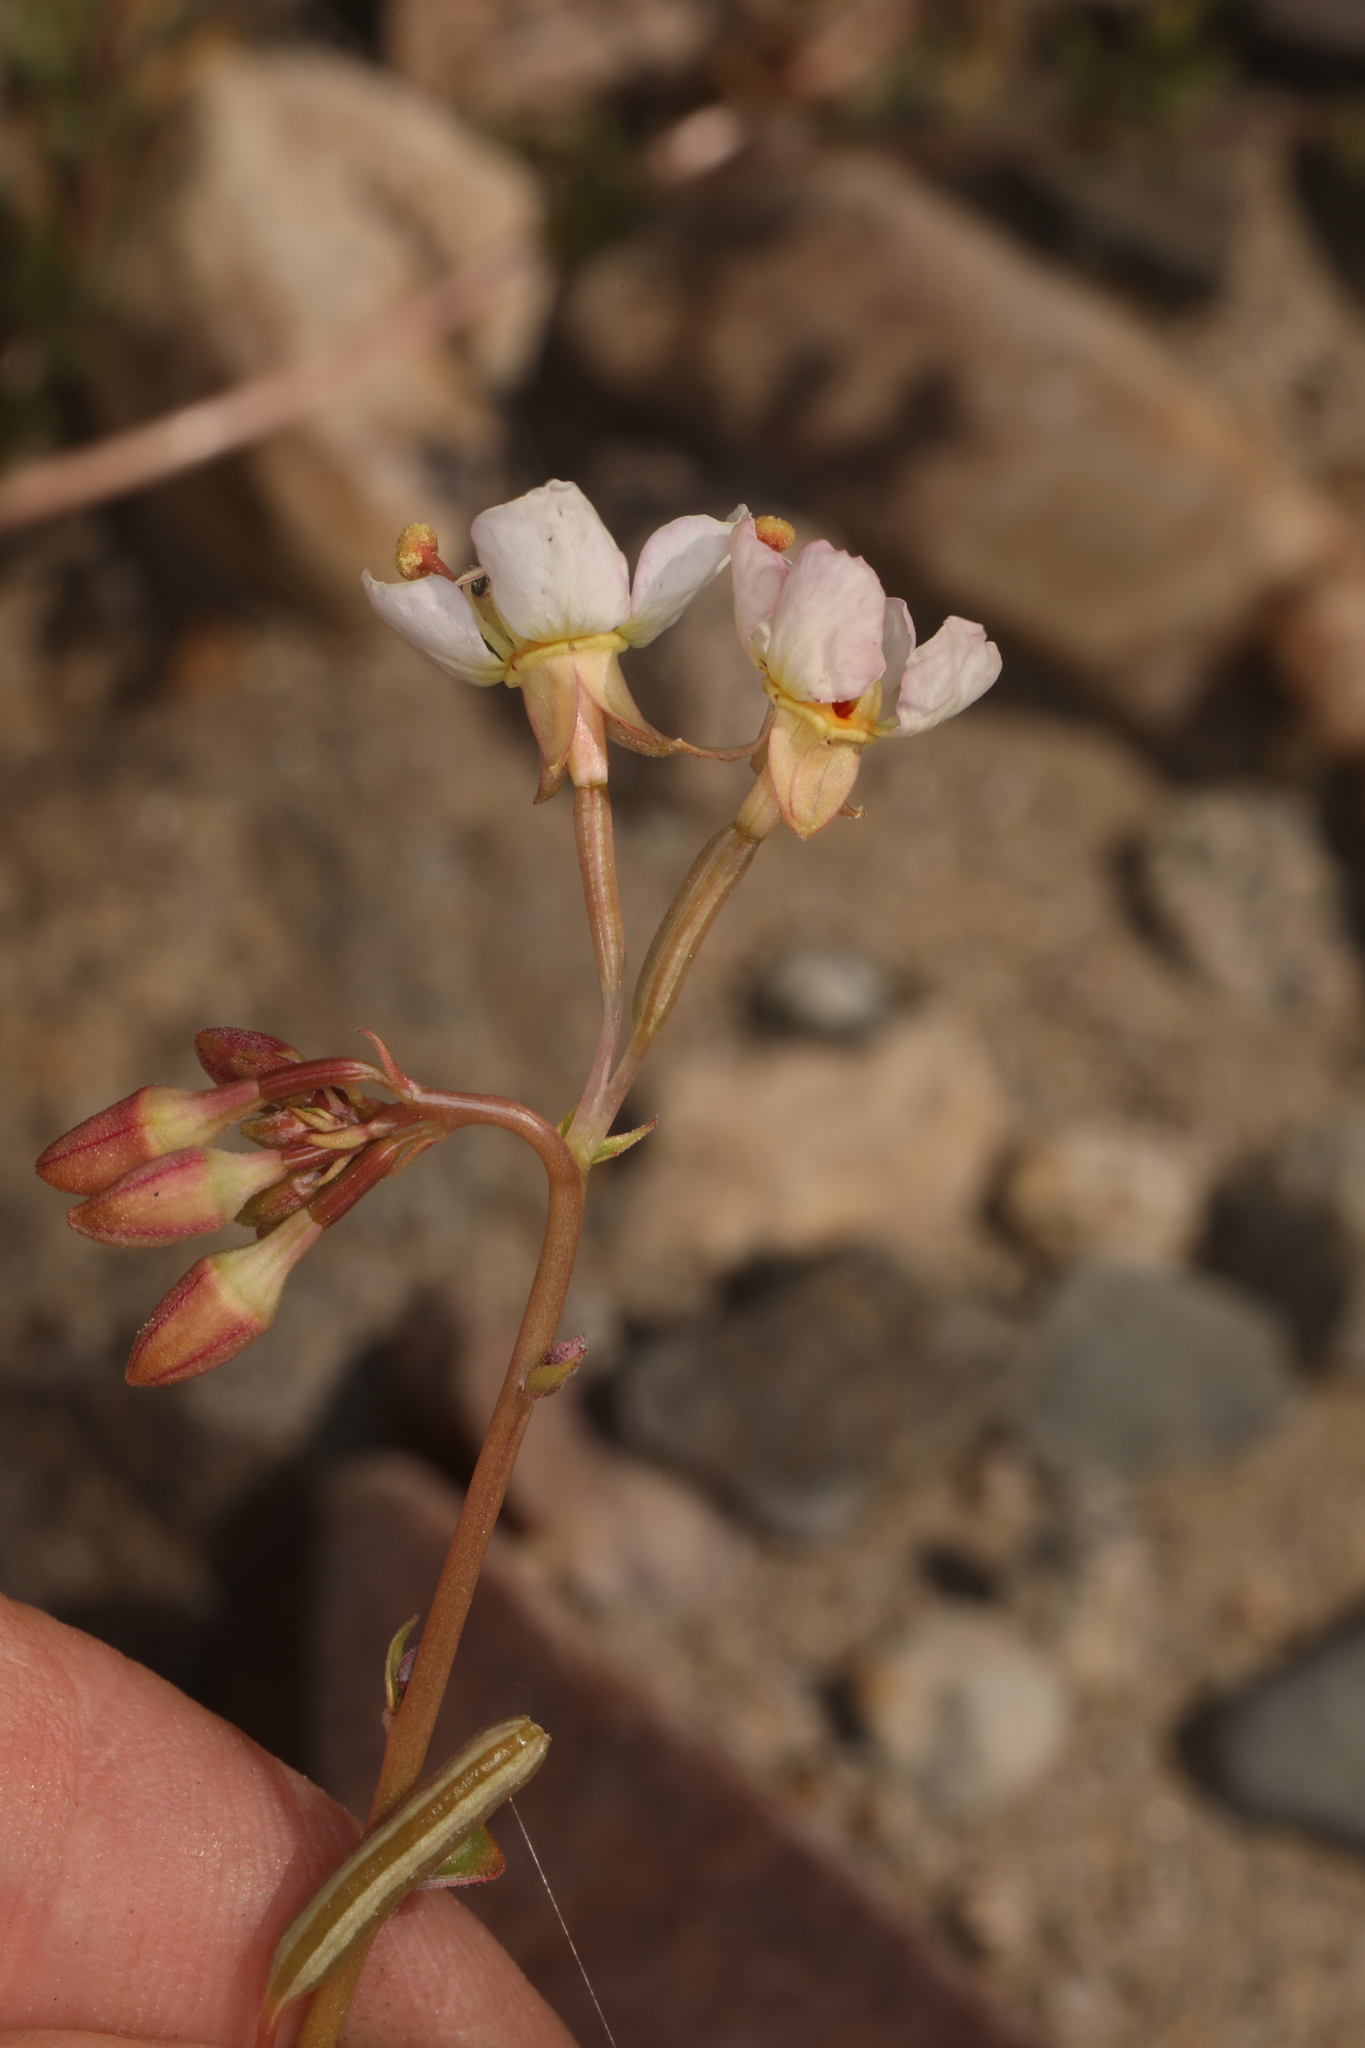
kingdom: Plantae
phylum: Tracheophyta
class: Magnoliopsida
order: Myrtales
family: Onagraceae
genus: Chylismia
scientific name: Chylismia claviformis
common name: Browneyes
